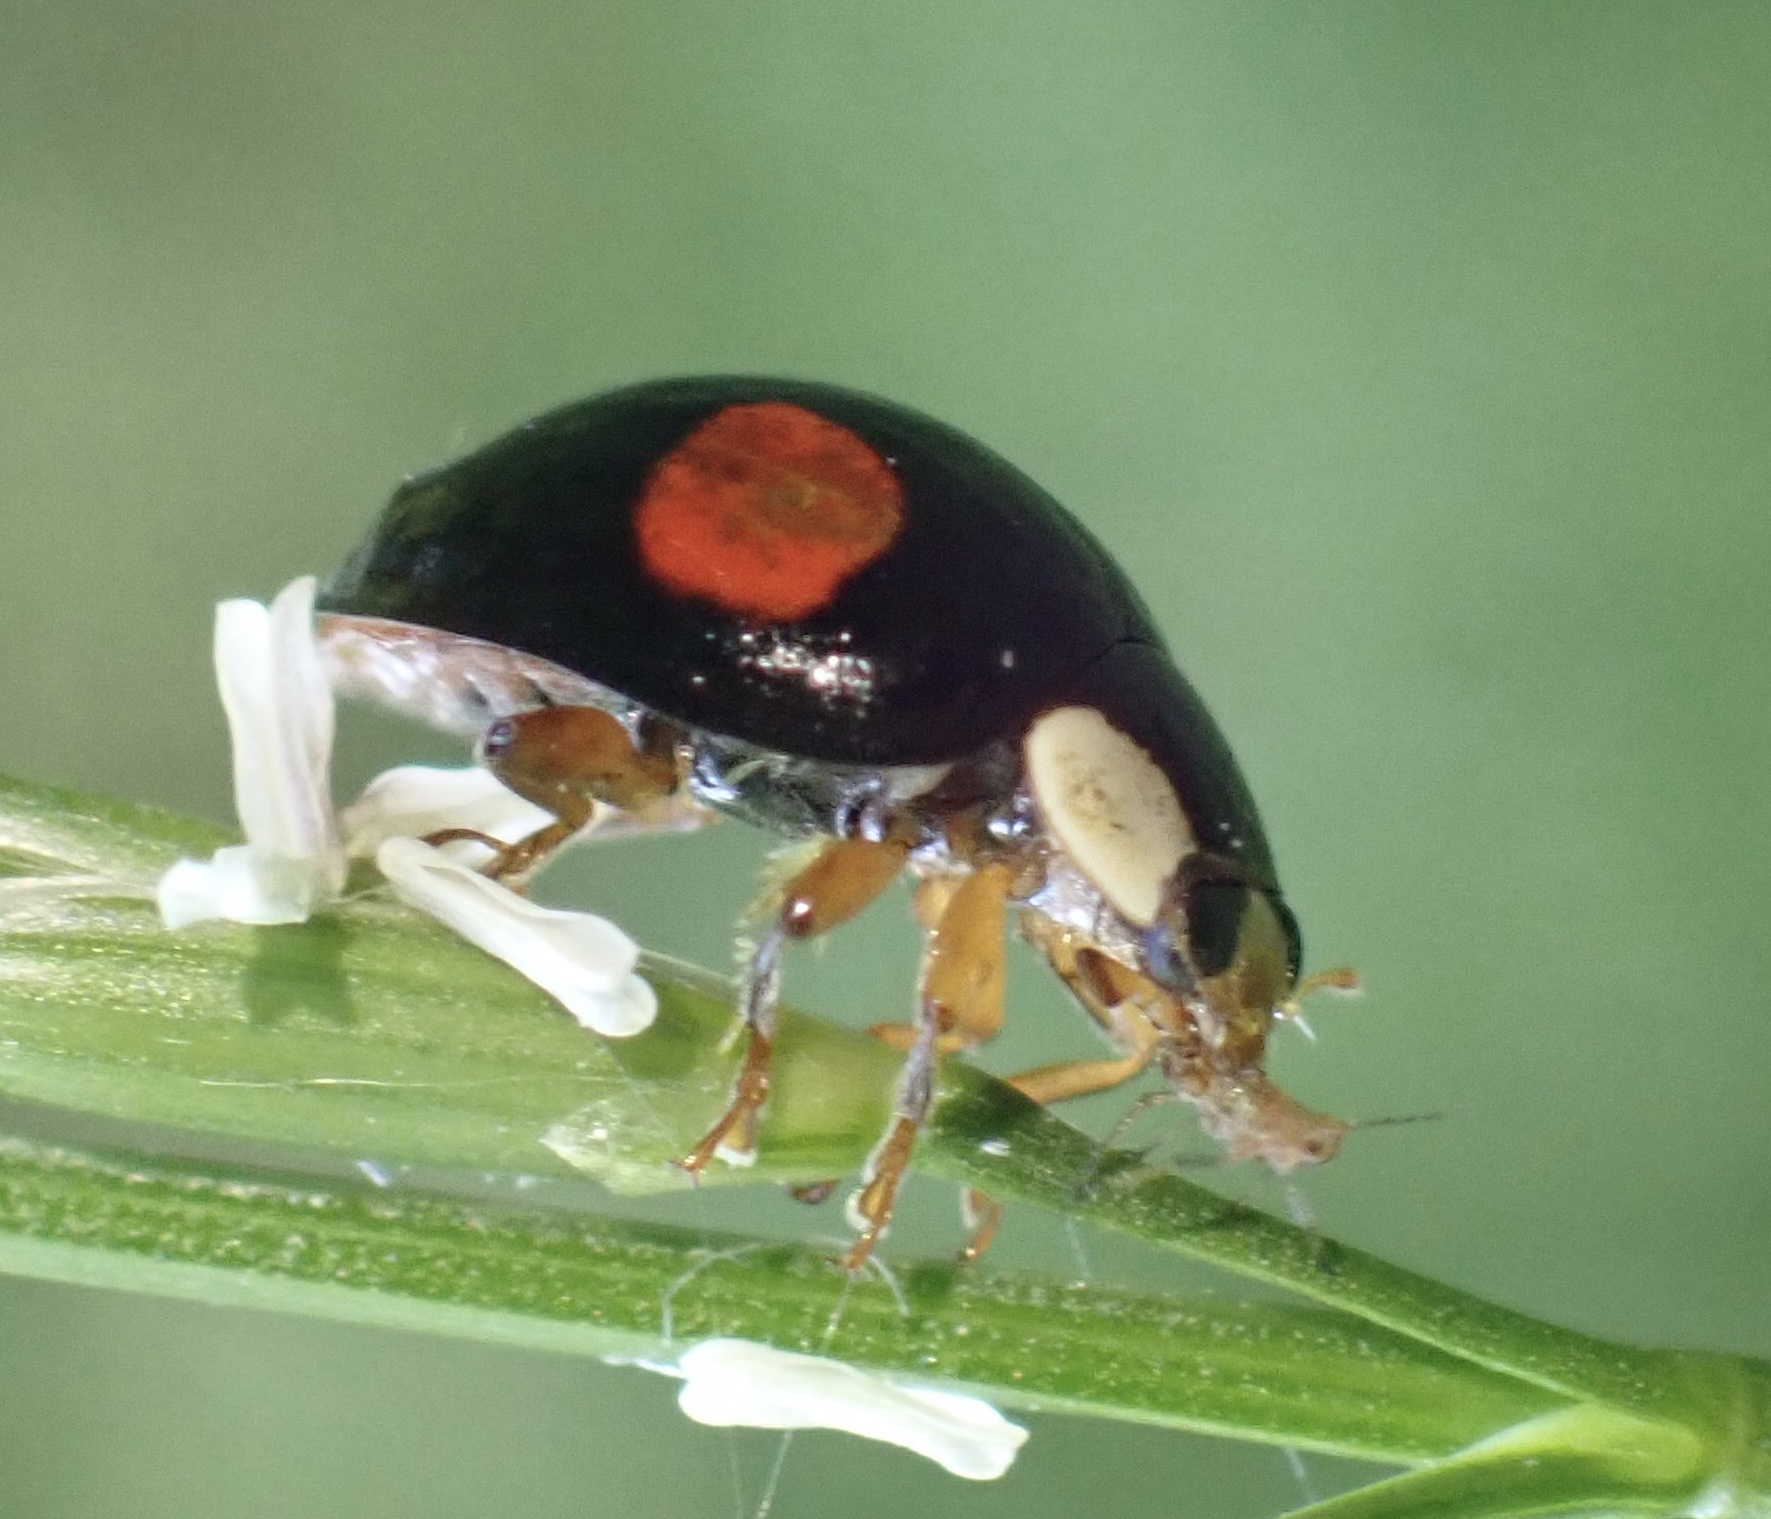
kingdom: Animalia
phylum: Arthropoda
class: Insecta
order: Coleoptera
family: Coccinellidae
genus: Harmonia
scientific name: Harmonia axyridis
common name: Harlequin ladybird
